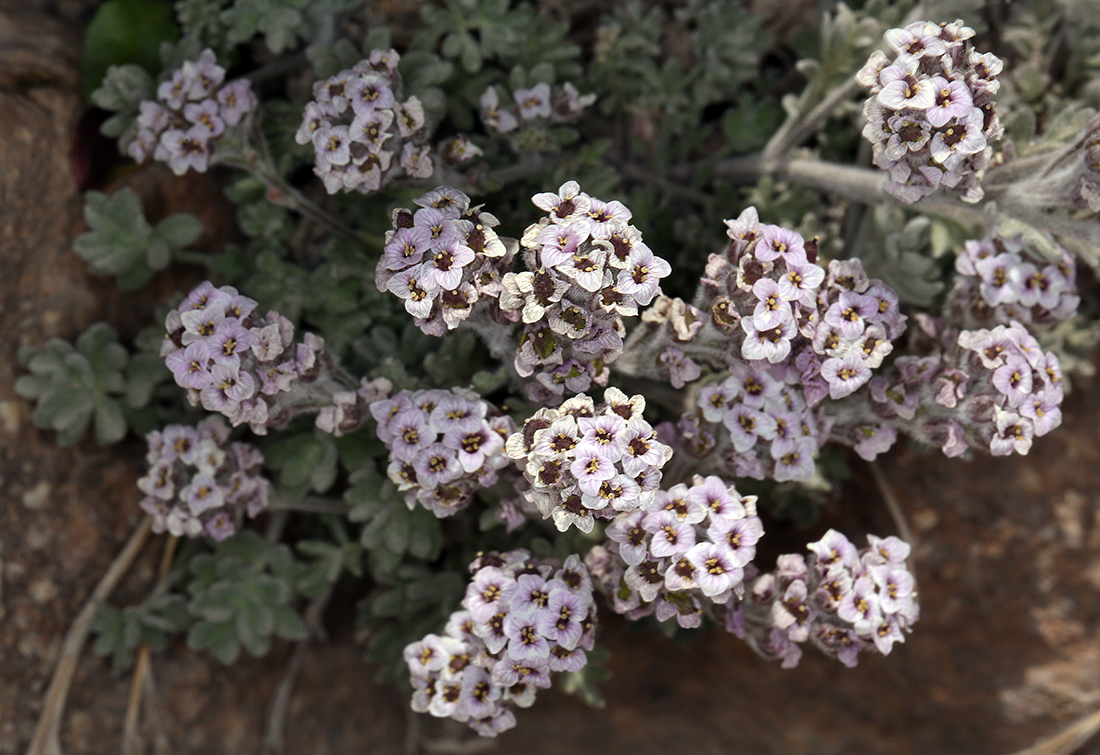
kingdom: Plantae
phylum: Tracheophyta
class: Magnoliopsida
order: Brassicales
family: Brassicaceae
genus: Smelowskia
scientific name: Smelowskia ovalis
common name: Alpine false candytuft
